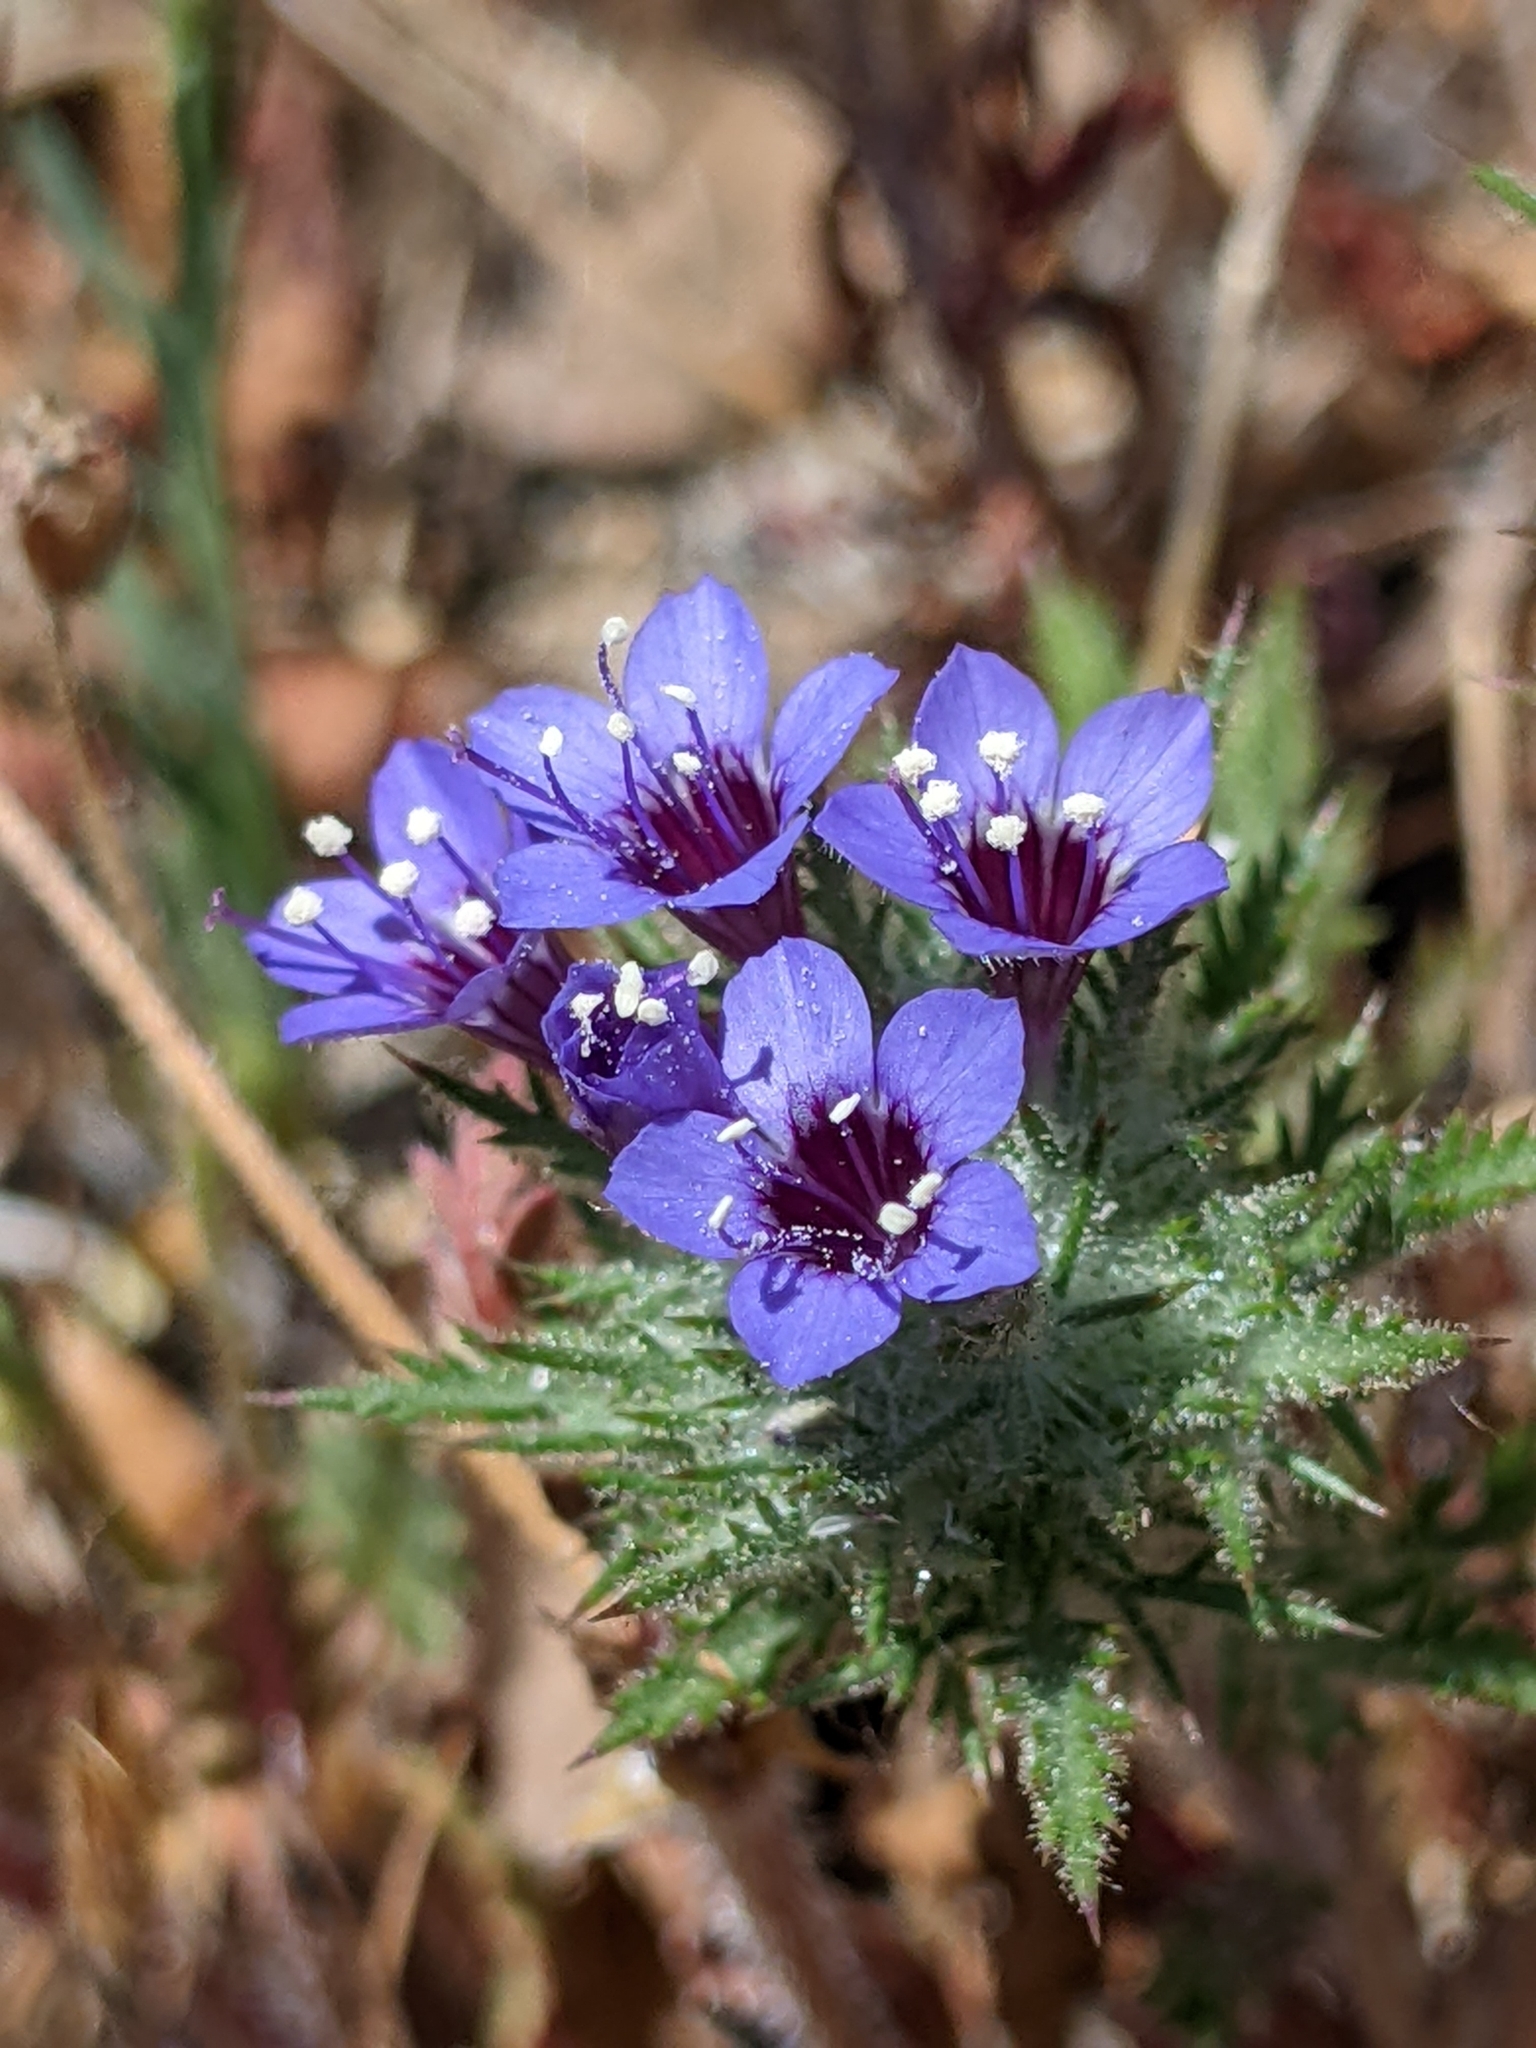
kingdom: Plantae
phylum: Tracheophyta
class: Magnoliopsida
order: Ericales
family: Polemoniaceae
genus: Navarretia
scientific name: Navarretia pubescens
